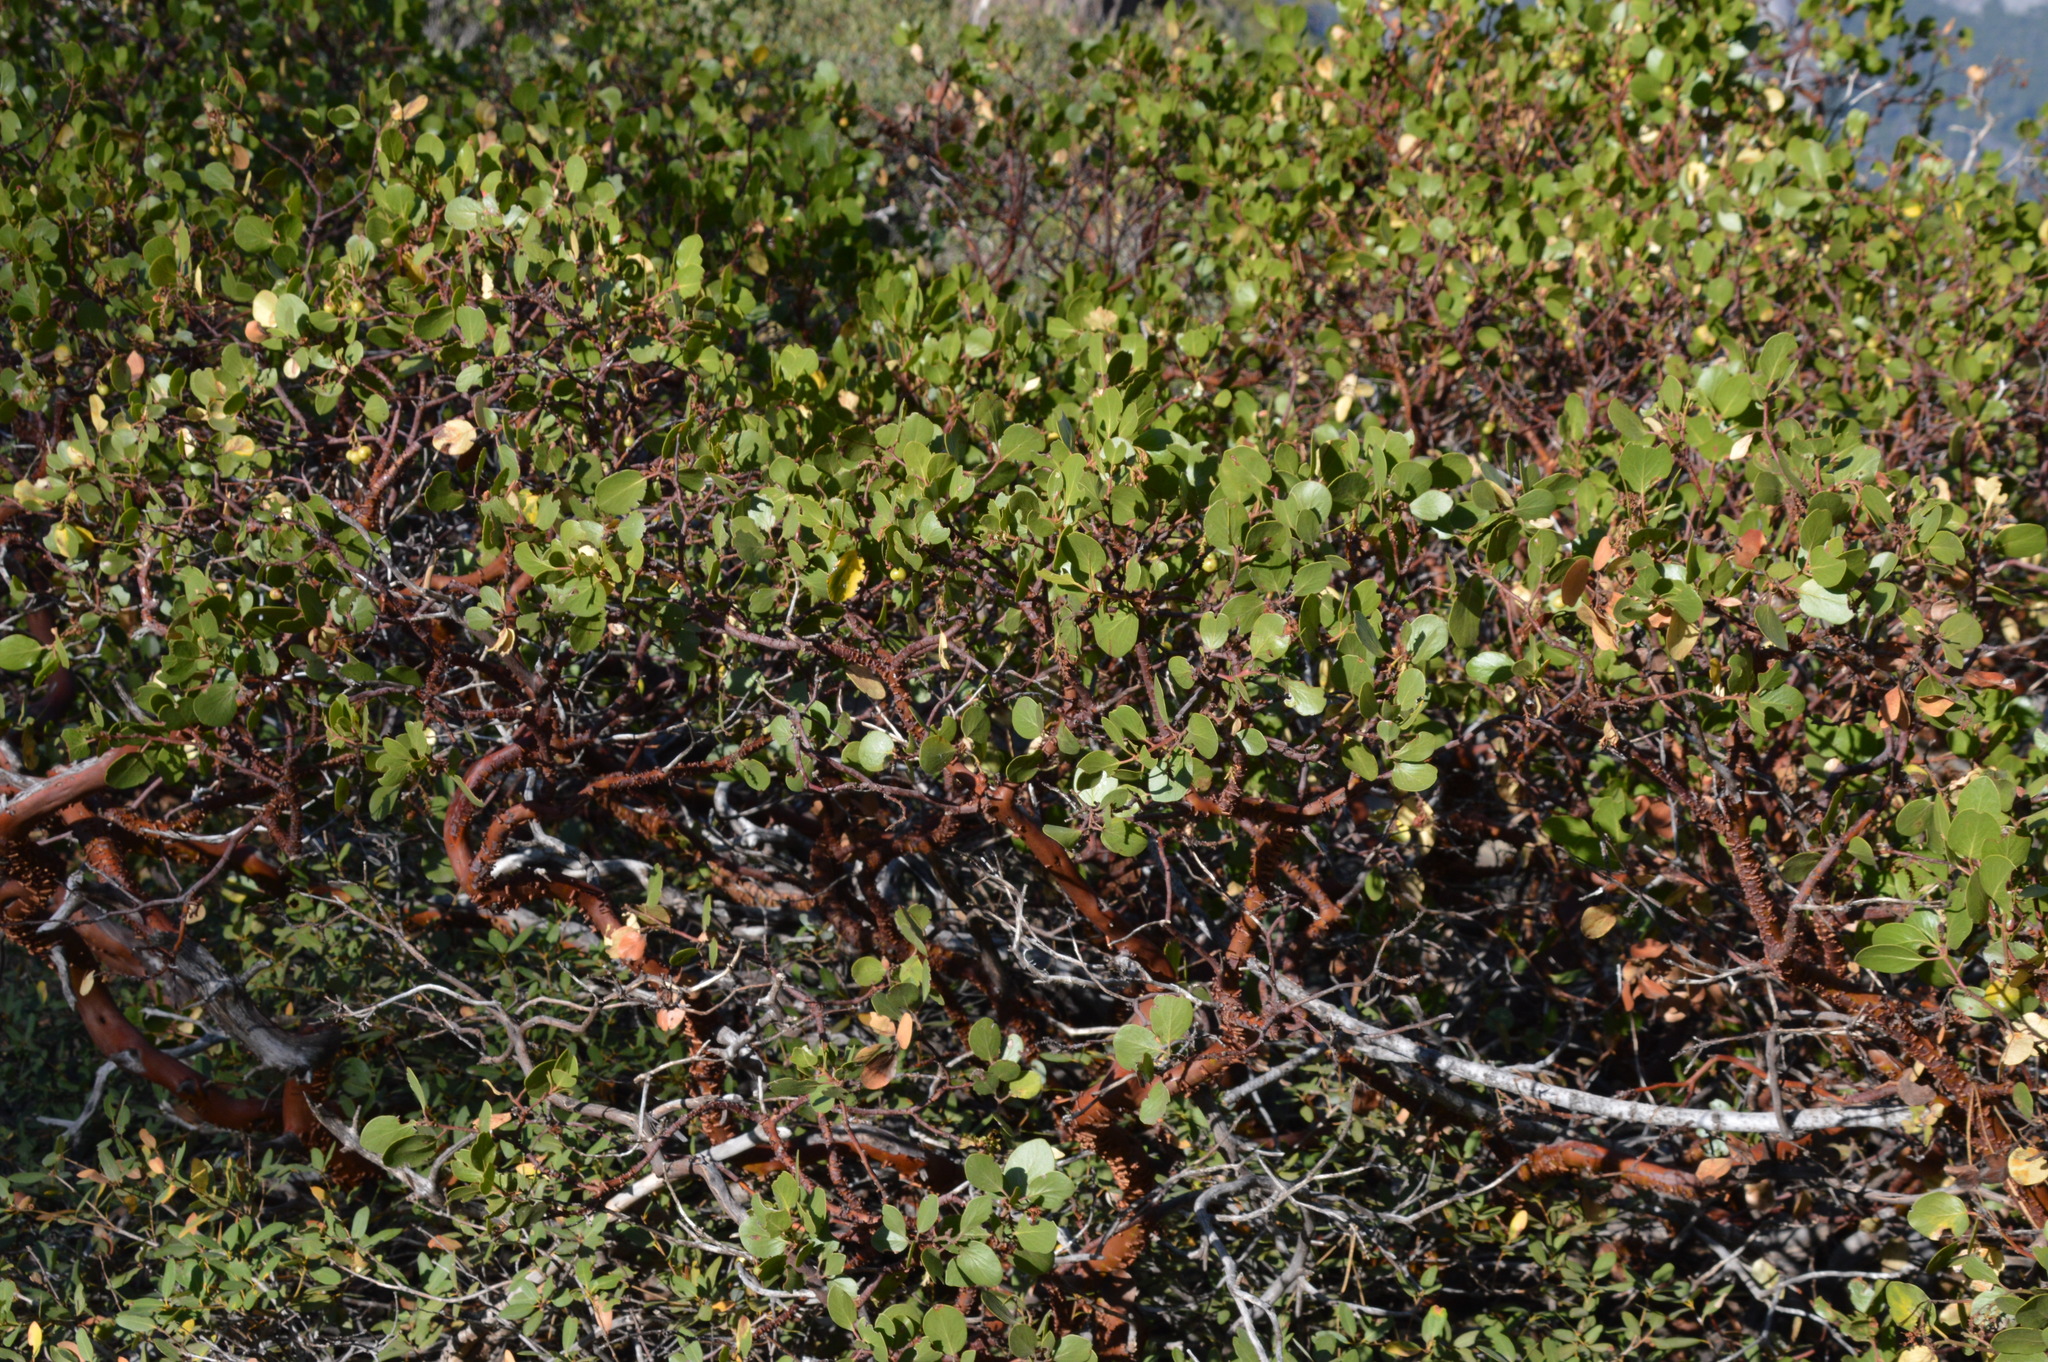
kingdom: Plantae
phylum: Tracheophyta
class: Magnoliopsida
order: Ericales
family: Ericaceae
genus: Arctostaphylos
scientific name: Arctostaphylos patula
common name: Green-leaf manzanita
